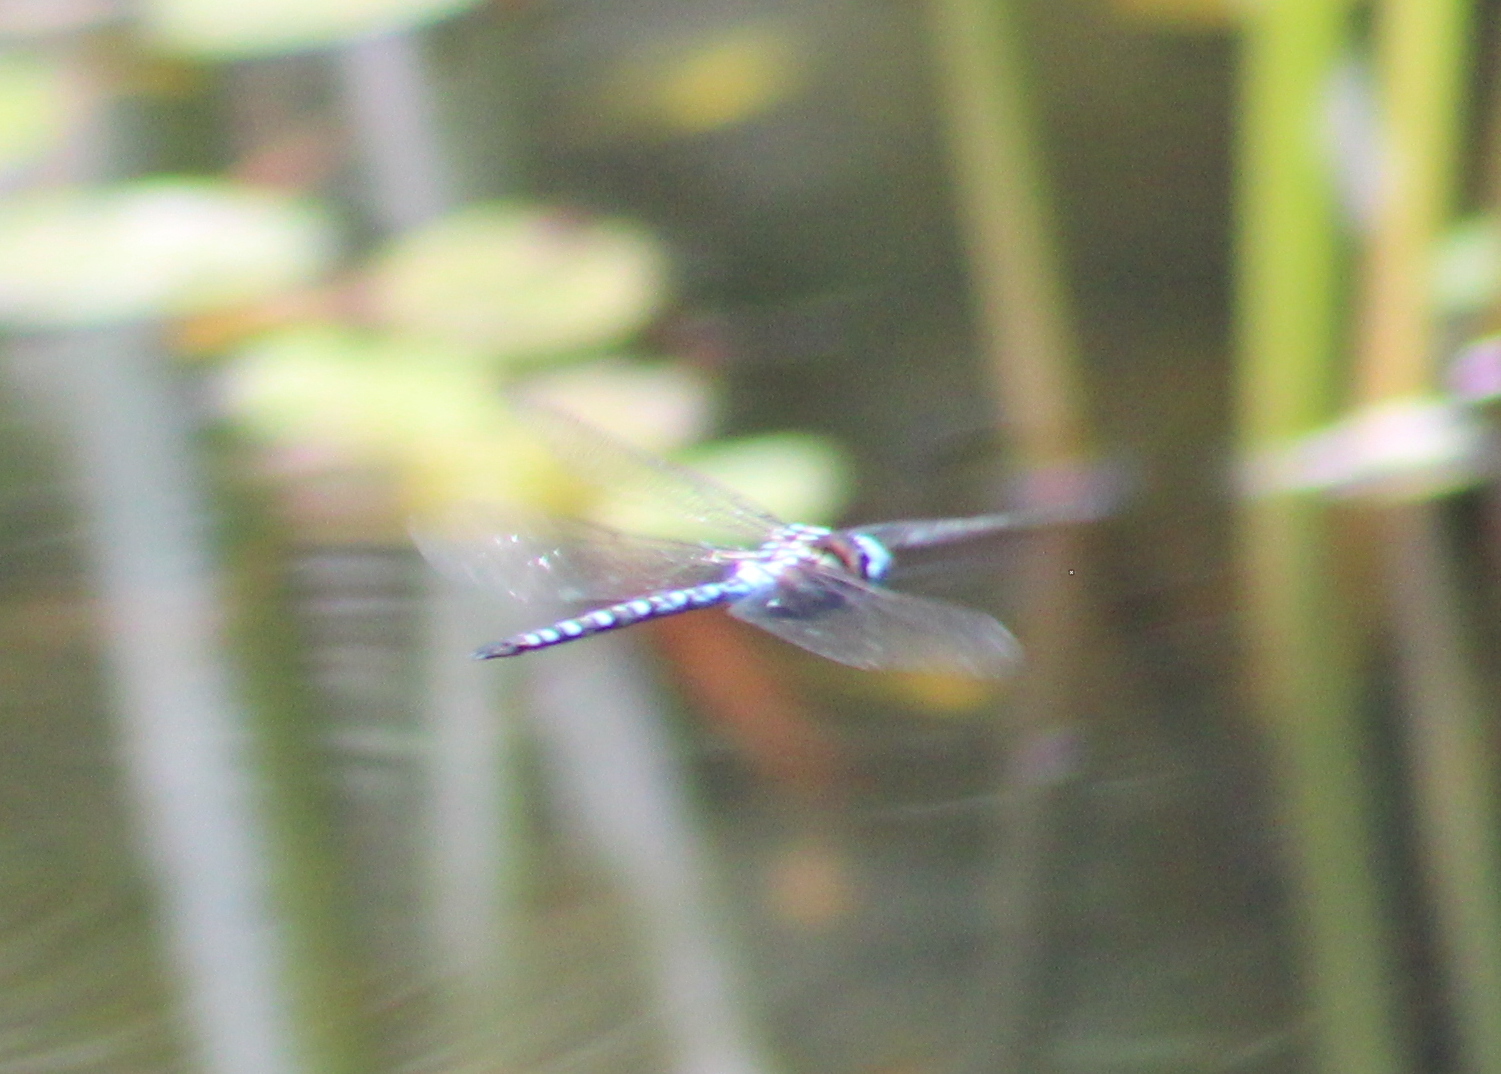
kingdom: Animalia
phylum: Arthropoda
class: Insecta
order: Odonata
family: Aeshnidae
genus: Rhionaeschna
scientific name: Rhionaeschna mutata
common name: Spatterdock darner
